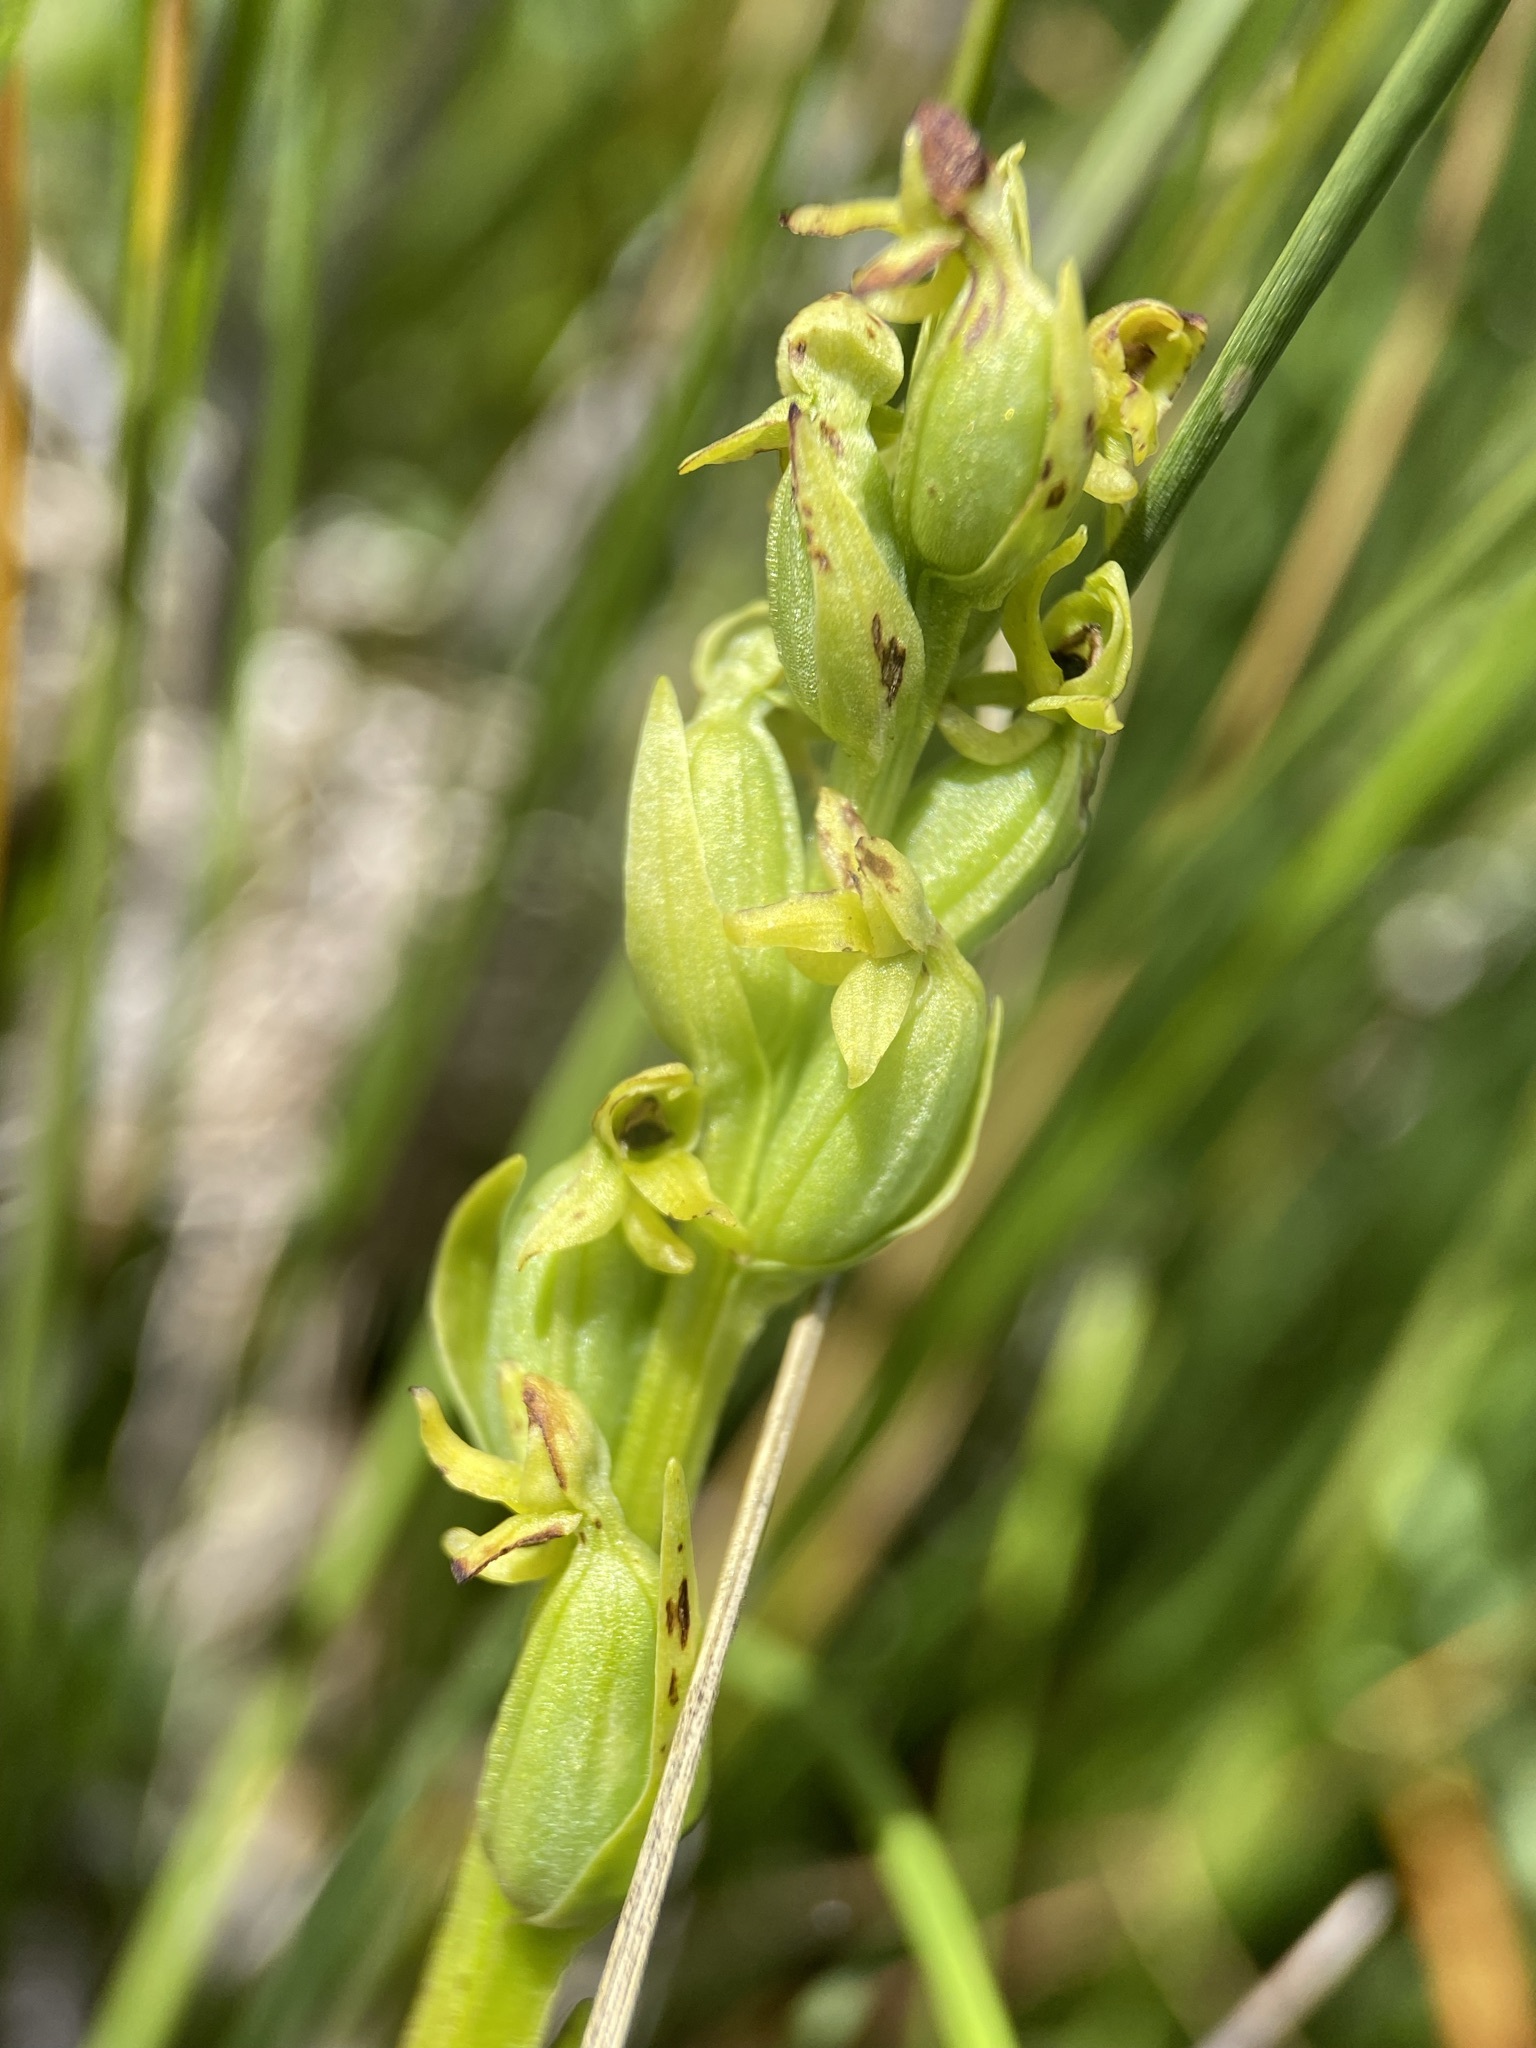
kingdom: Plantae
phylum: Tracheophyta
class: Liliopsida
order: Asparagales
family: Orchidaceae
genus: Platanthera
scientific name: Platanthera aquilonis
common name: Northern green orchid
